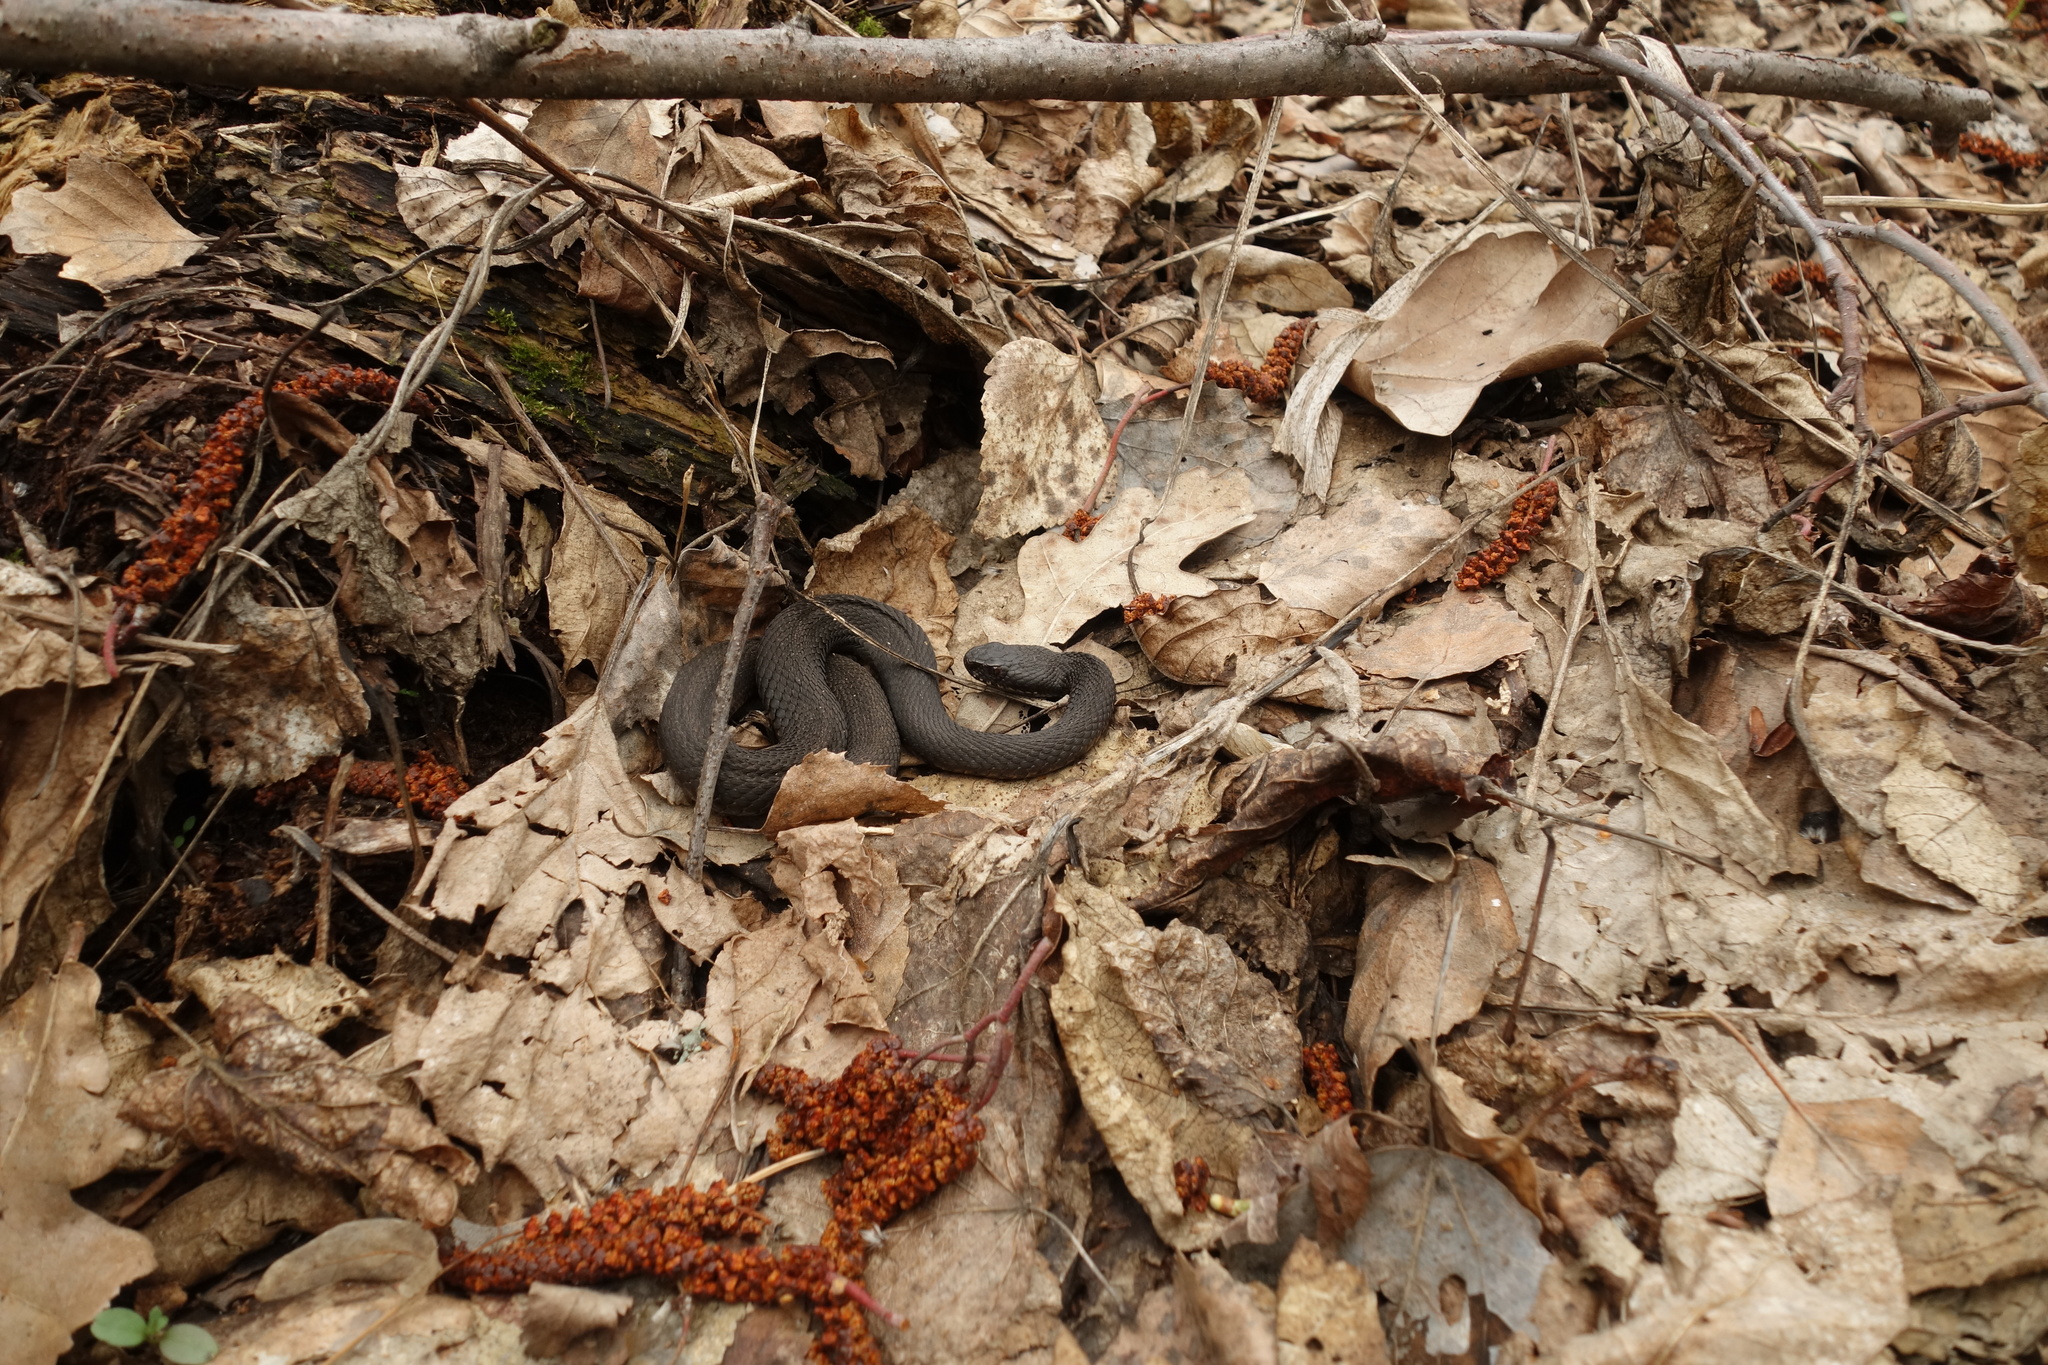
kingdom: Animalia
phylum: Chordata
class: Squamata
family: Viperidae
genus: Vipera
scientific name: Vipera nikolskii
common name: Adder
